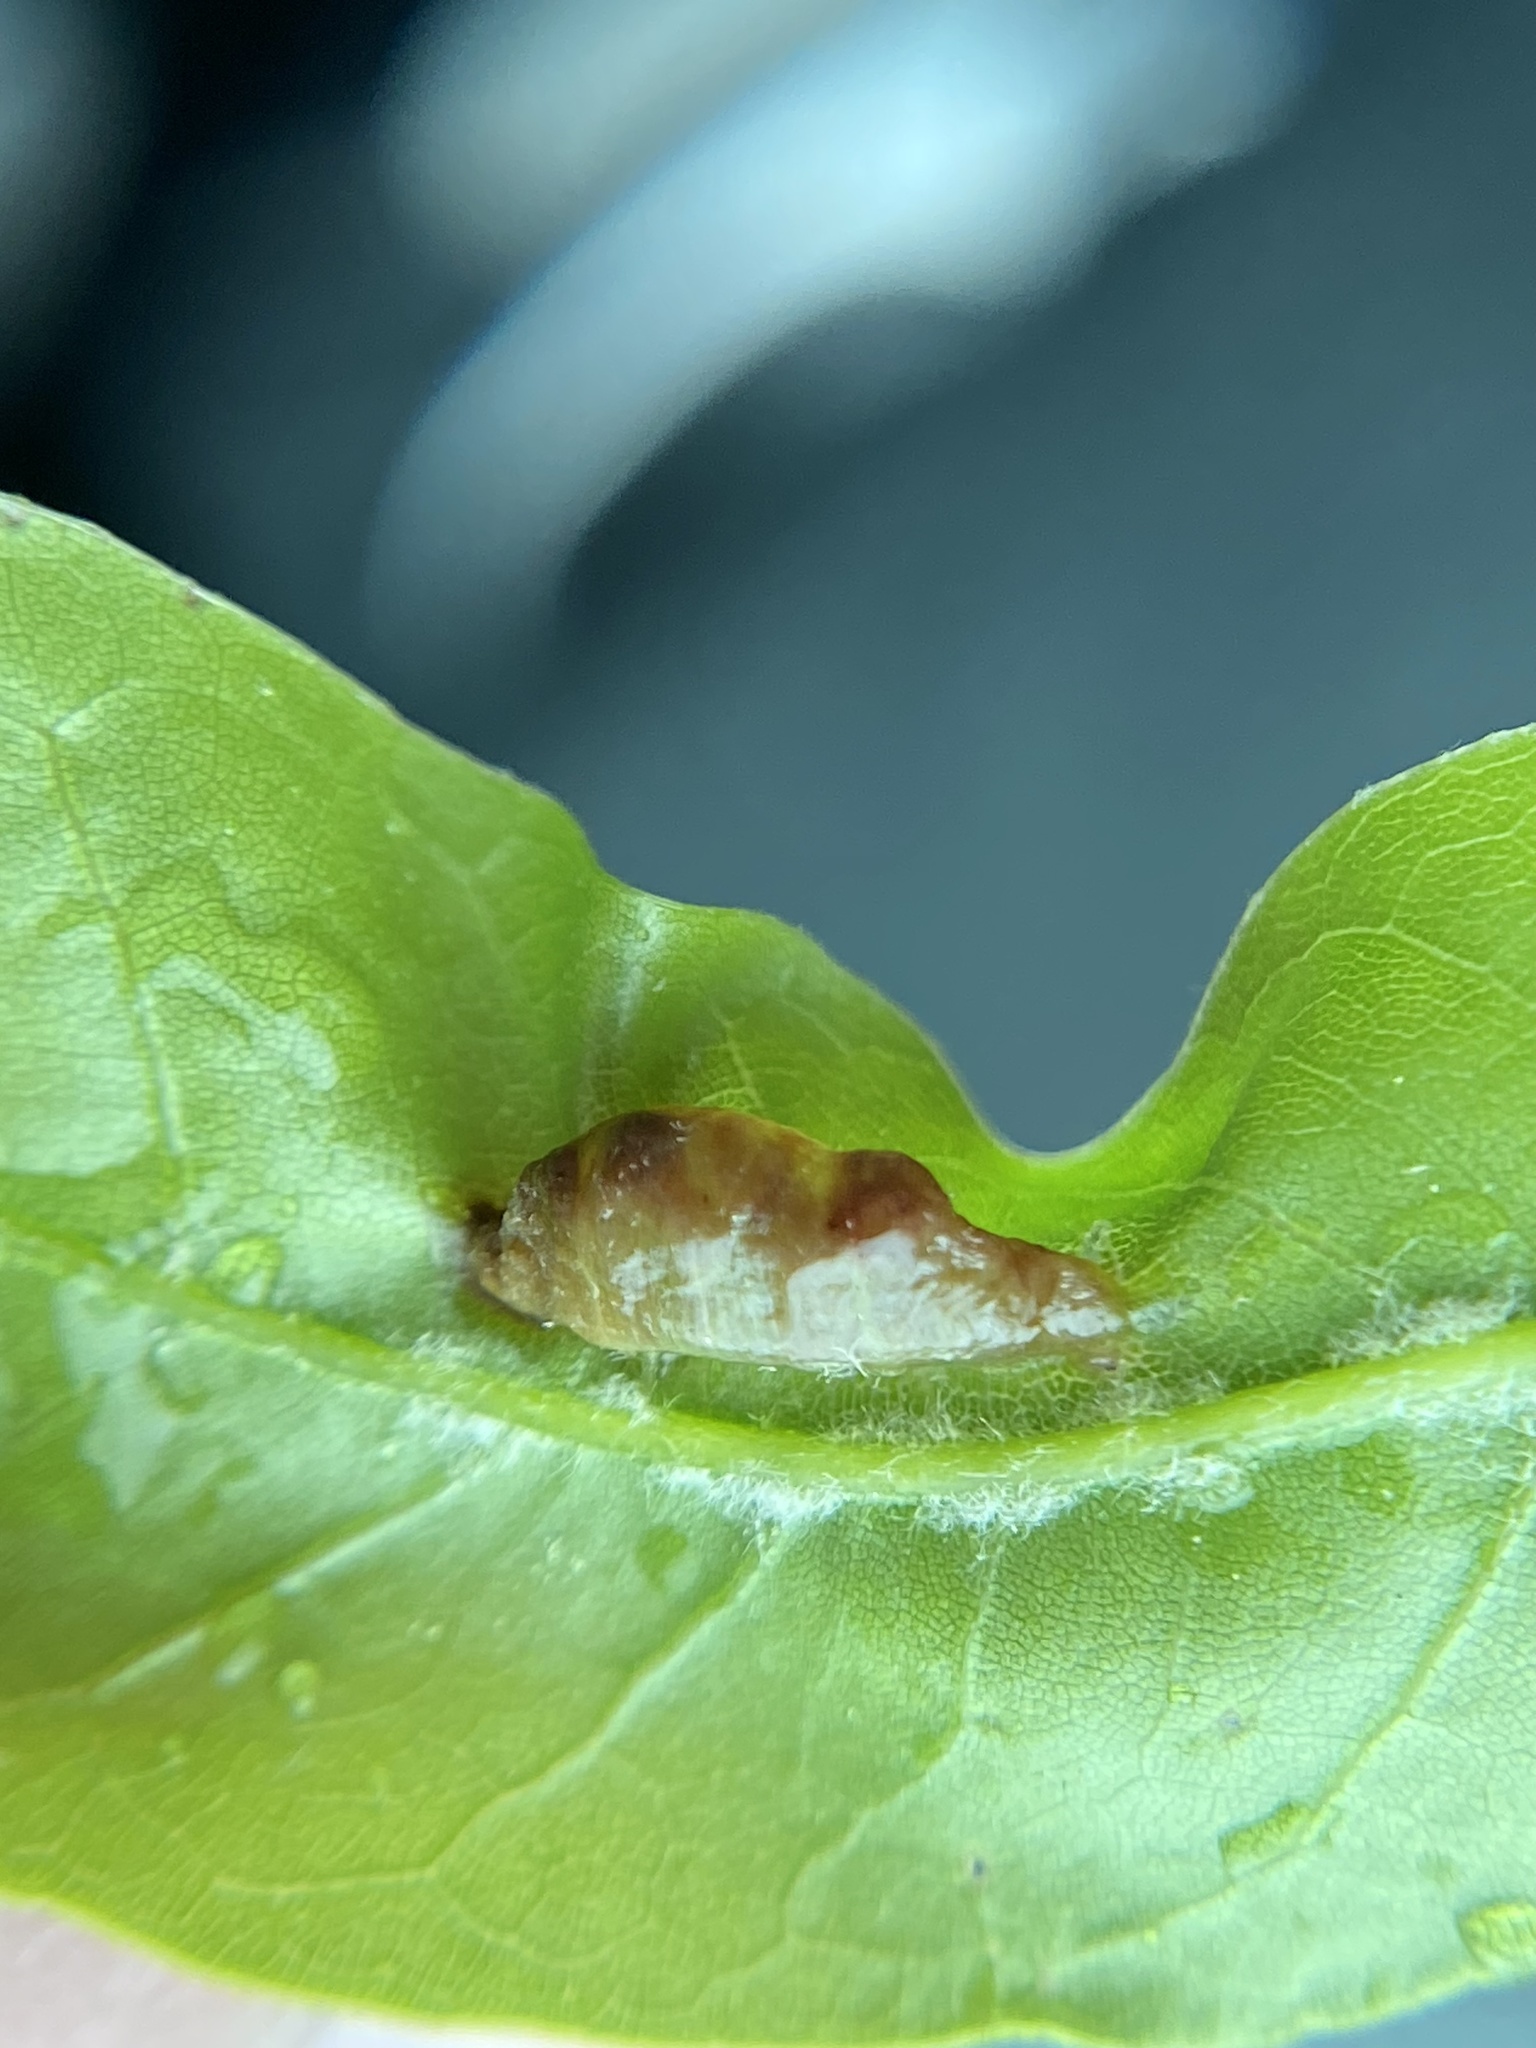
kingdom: Animalia
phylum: Arthropoda
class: Insecta
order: Diptera
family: Cecidomyiidae
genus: Macrodiplosis
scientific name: Macrodiplosis majalis
